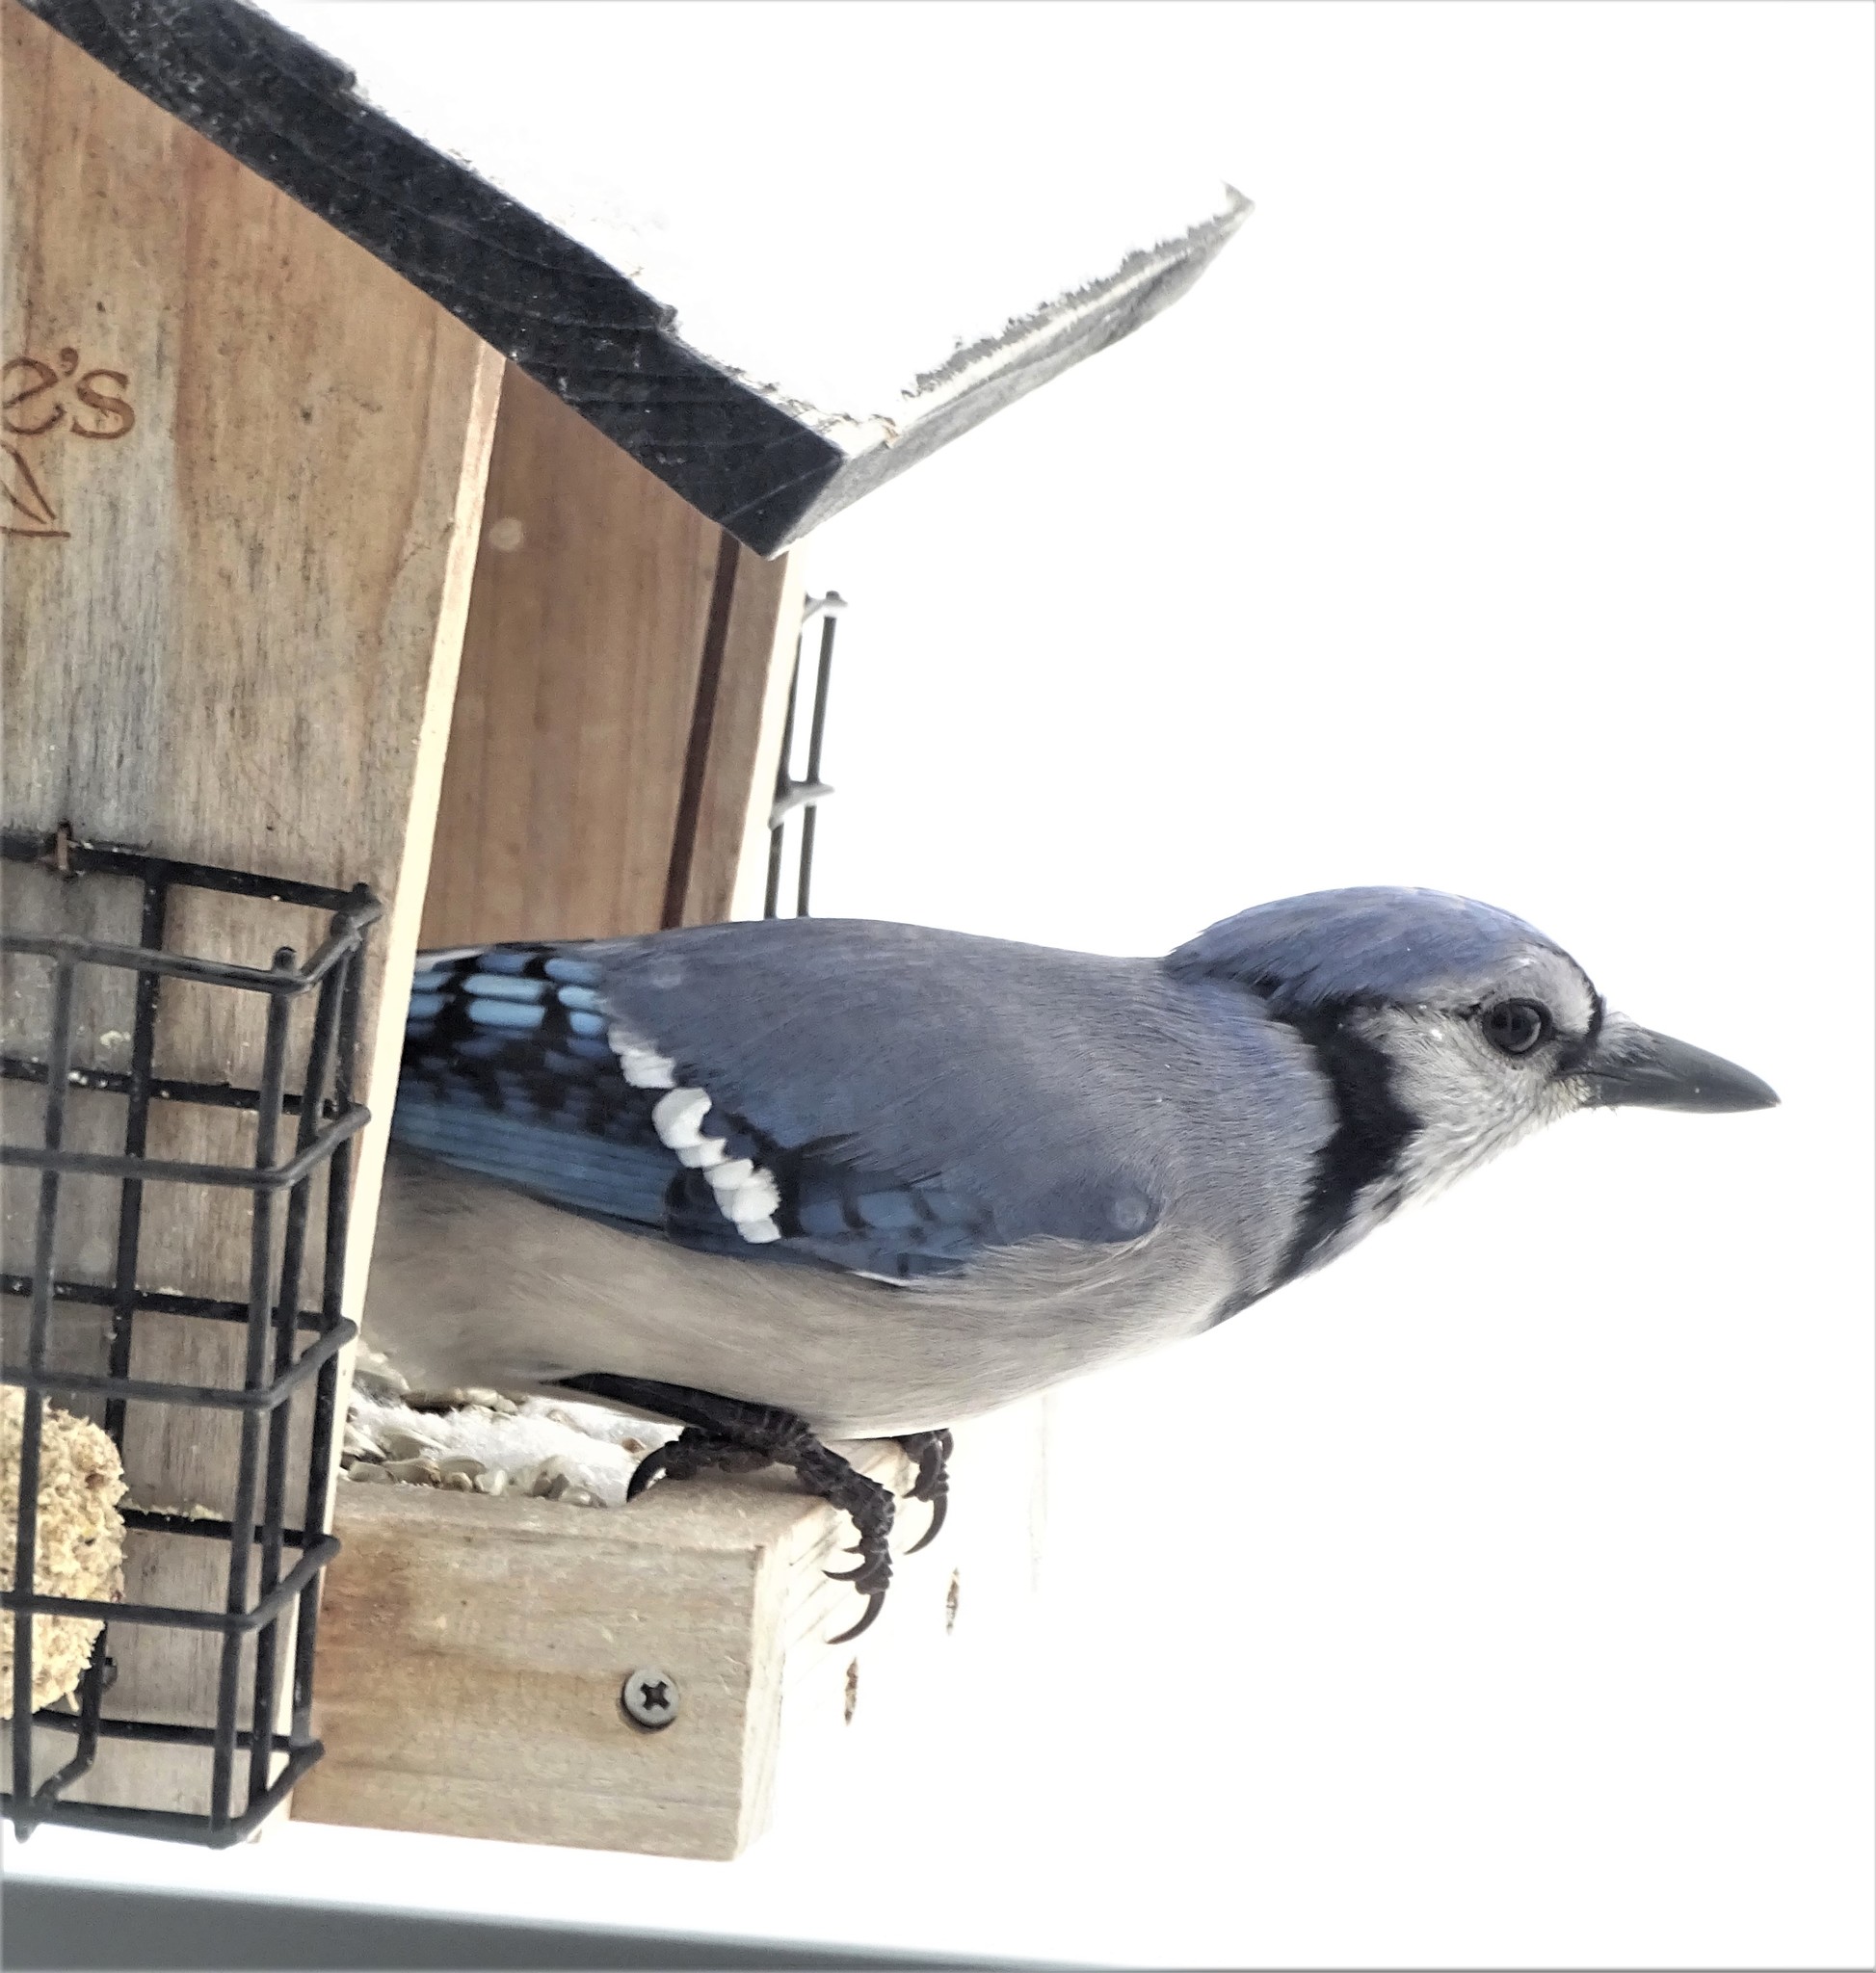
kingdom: Animalia
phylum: Chordata
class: Aves
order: Passeriformes
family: Corvidae
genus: Cyanocitta
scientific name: Cyanocitta cristata
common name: Blue jay
